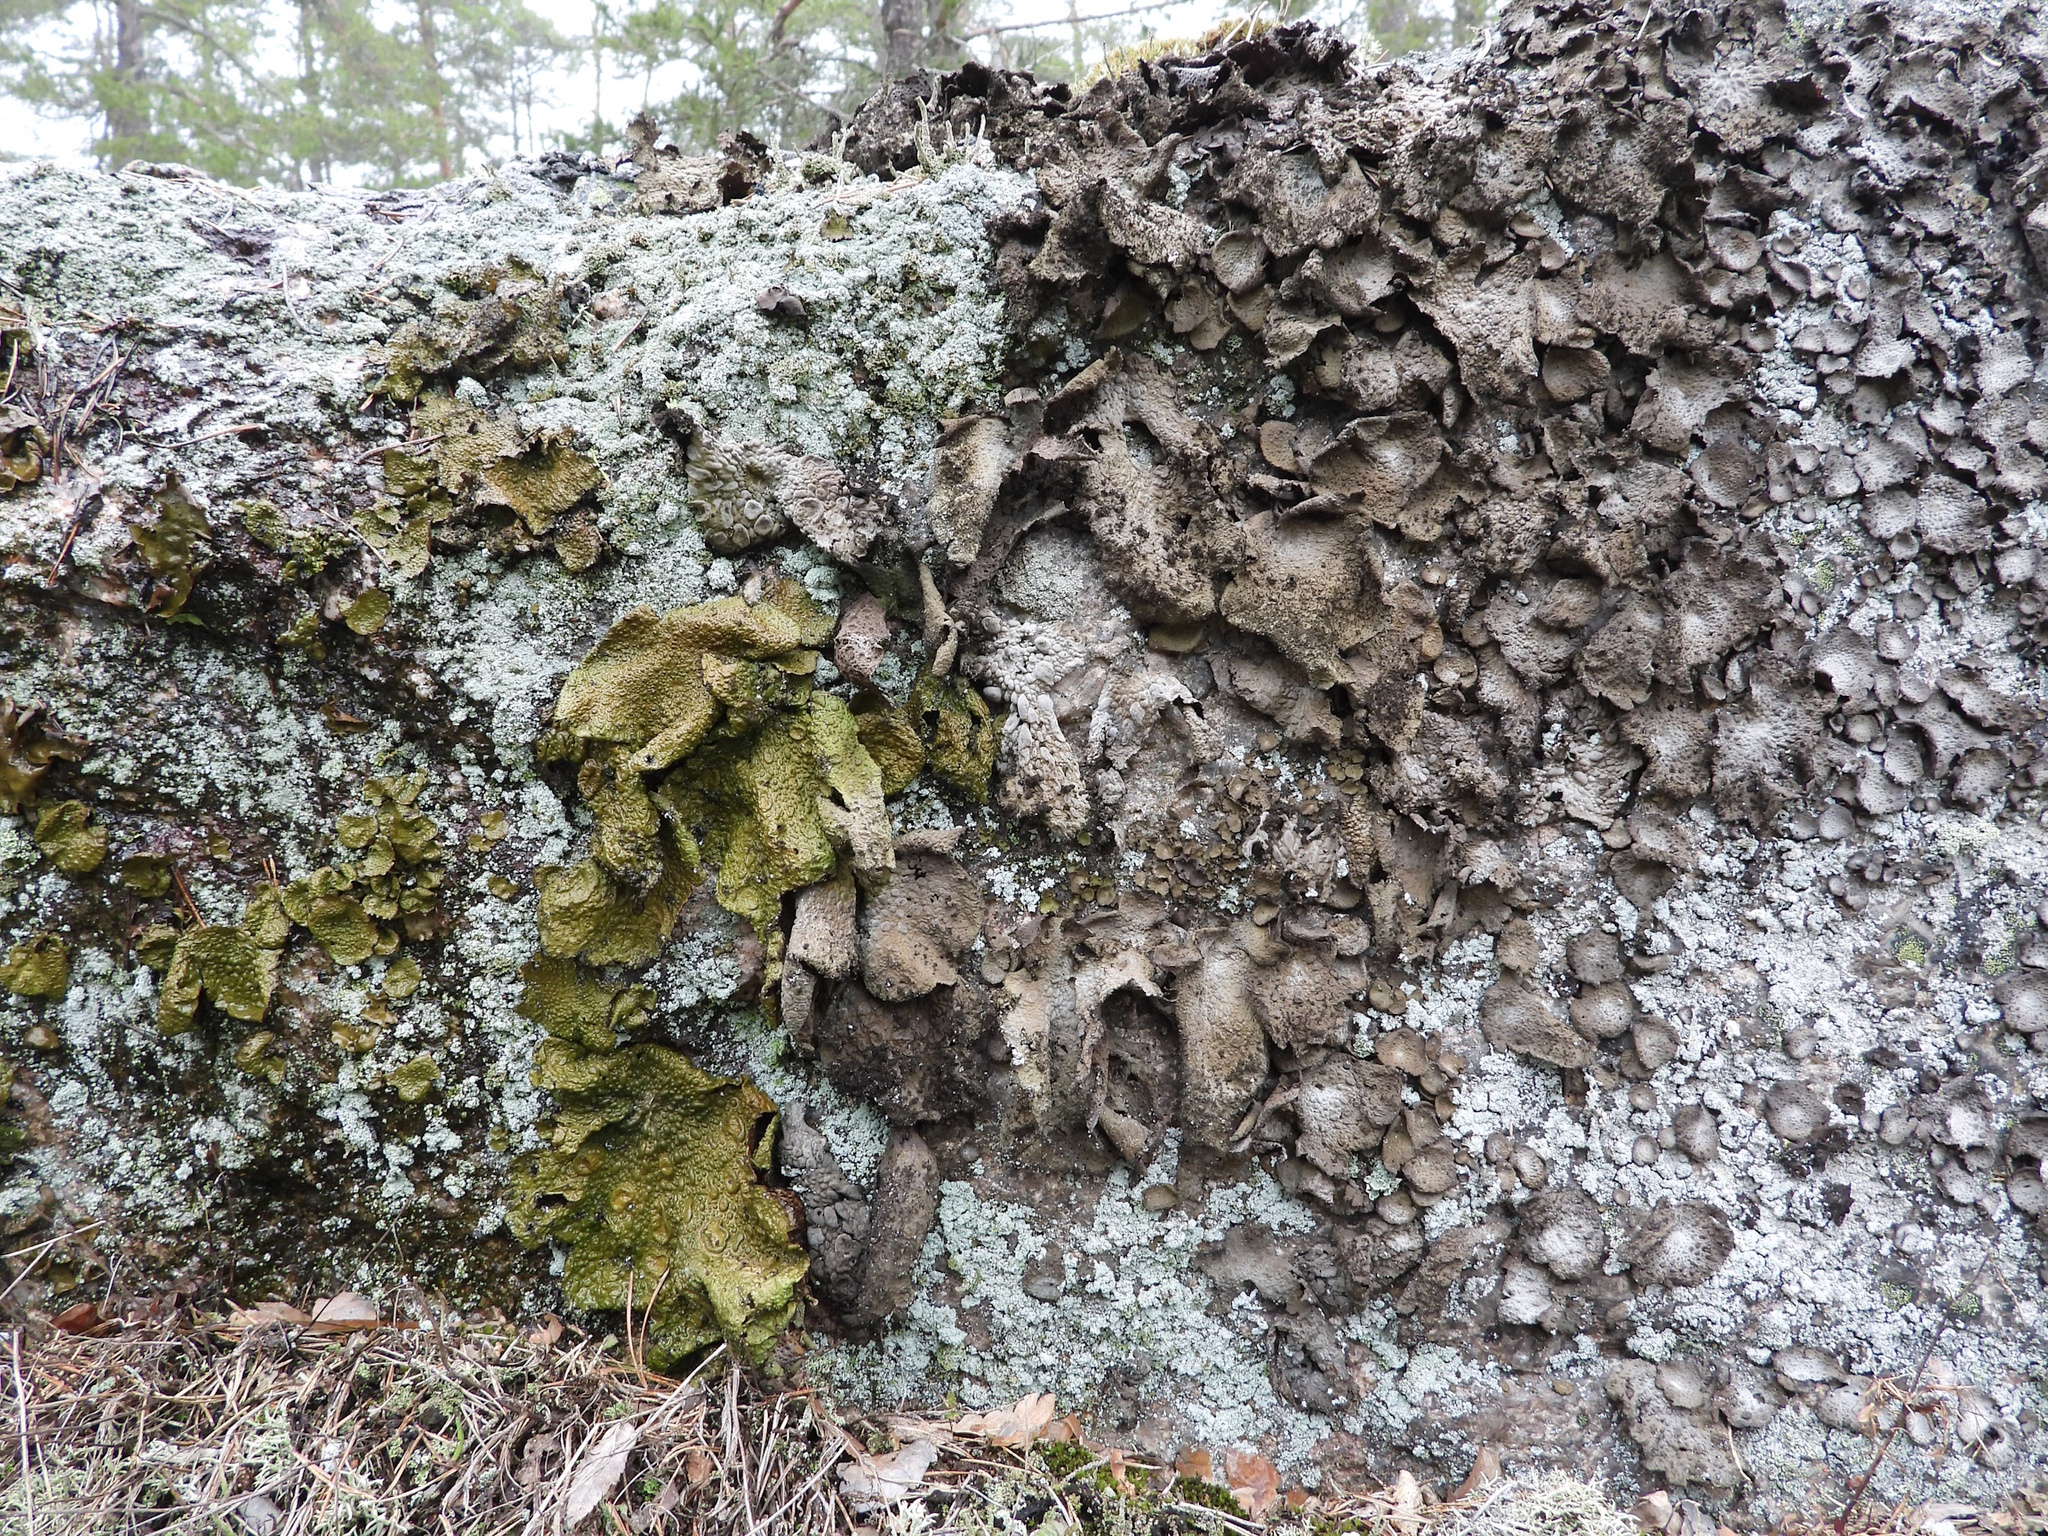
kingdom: Fungi
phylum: Ascomycota
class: Lecanoromycetes
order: Umbilicariales
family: Umbilicariaceae
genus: Lasallia
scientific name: Lasallia pustulata
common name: Blistered toadskin lichen
